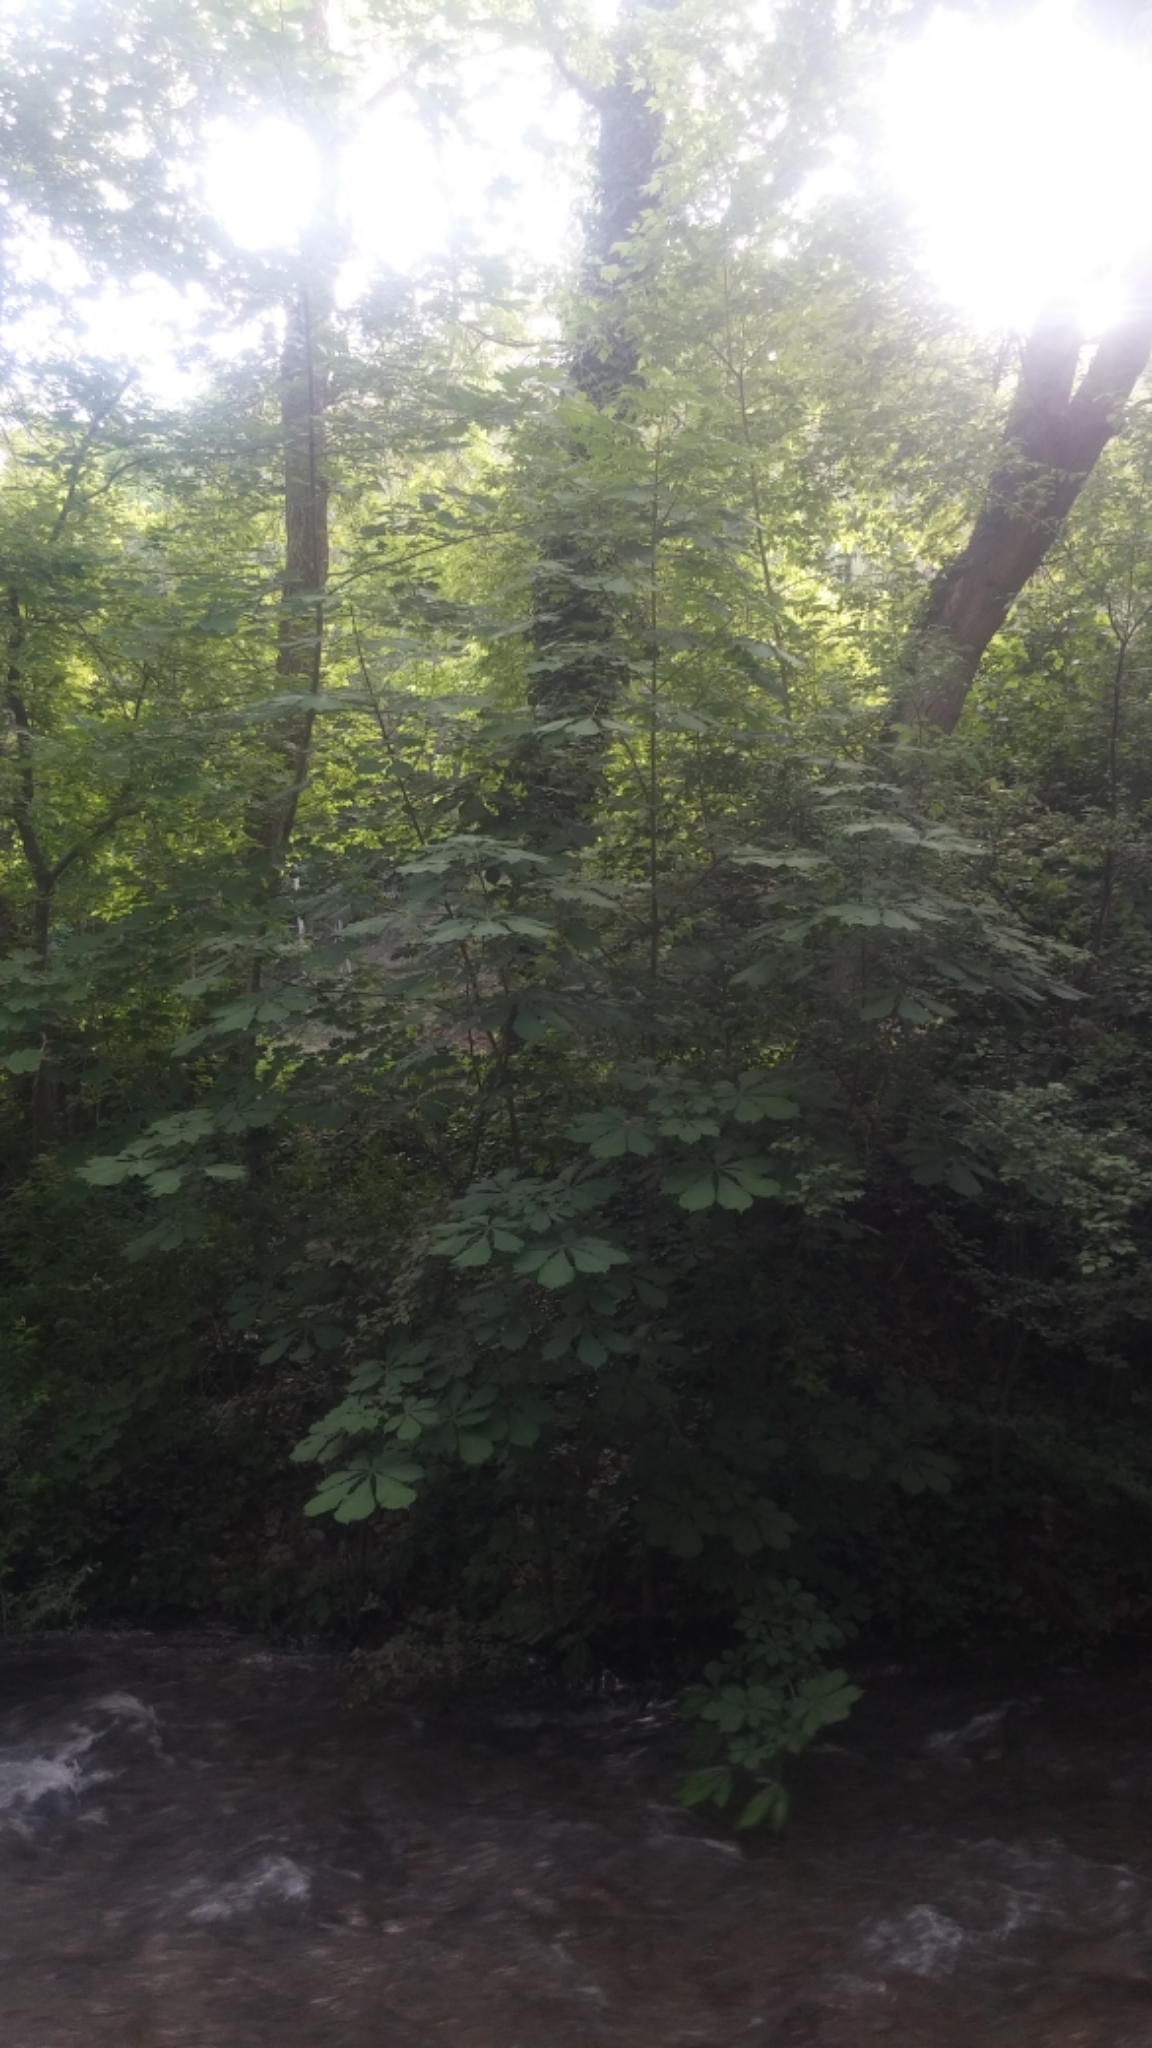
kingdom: Plantae
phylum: Tracheophyta
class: Magnoliopsida
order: Sapindales
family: Sapindaceae
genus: Aesculus
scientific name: Aesculus hippocastanum
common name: Horse-chestnut
